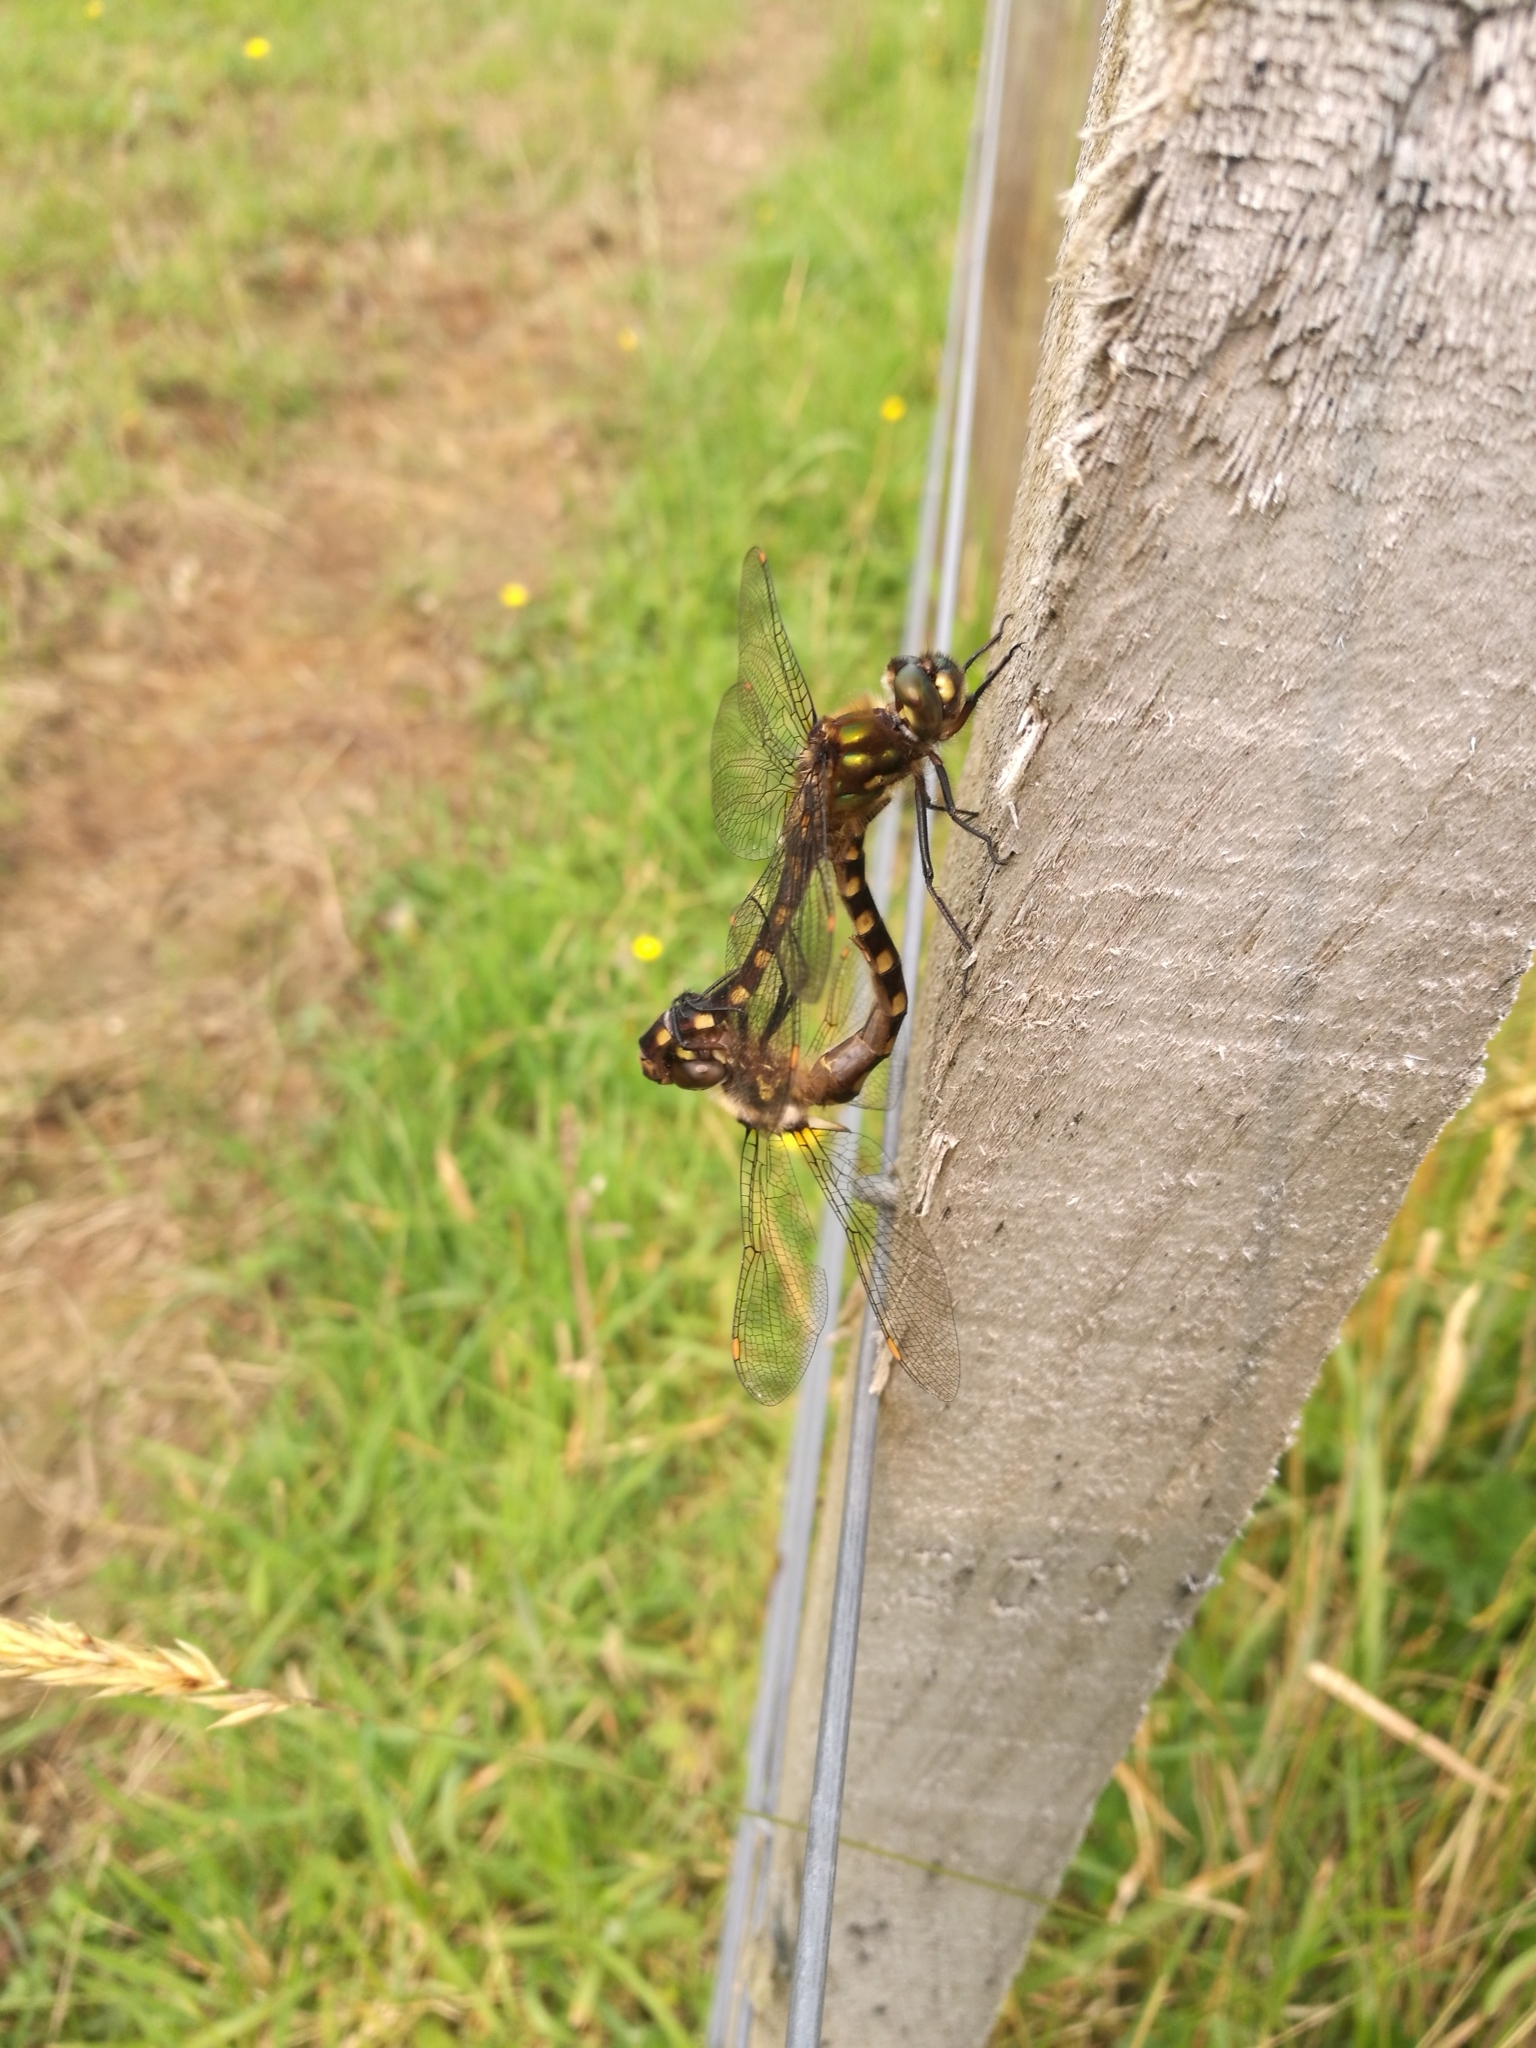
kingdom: Animalia
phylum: Arthropoda
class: Insecta
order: Odonata
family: Corduliidae
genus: Procordulia
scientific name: Procordulia grayi
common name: Yellow spotted dragonfly
